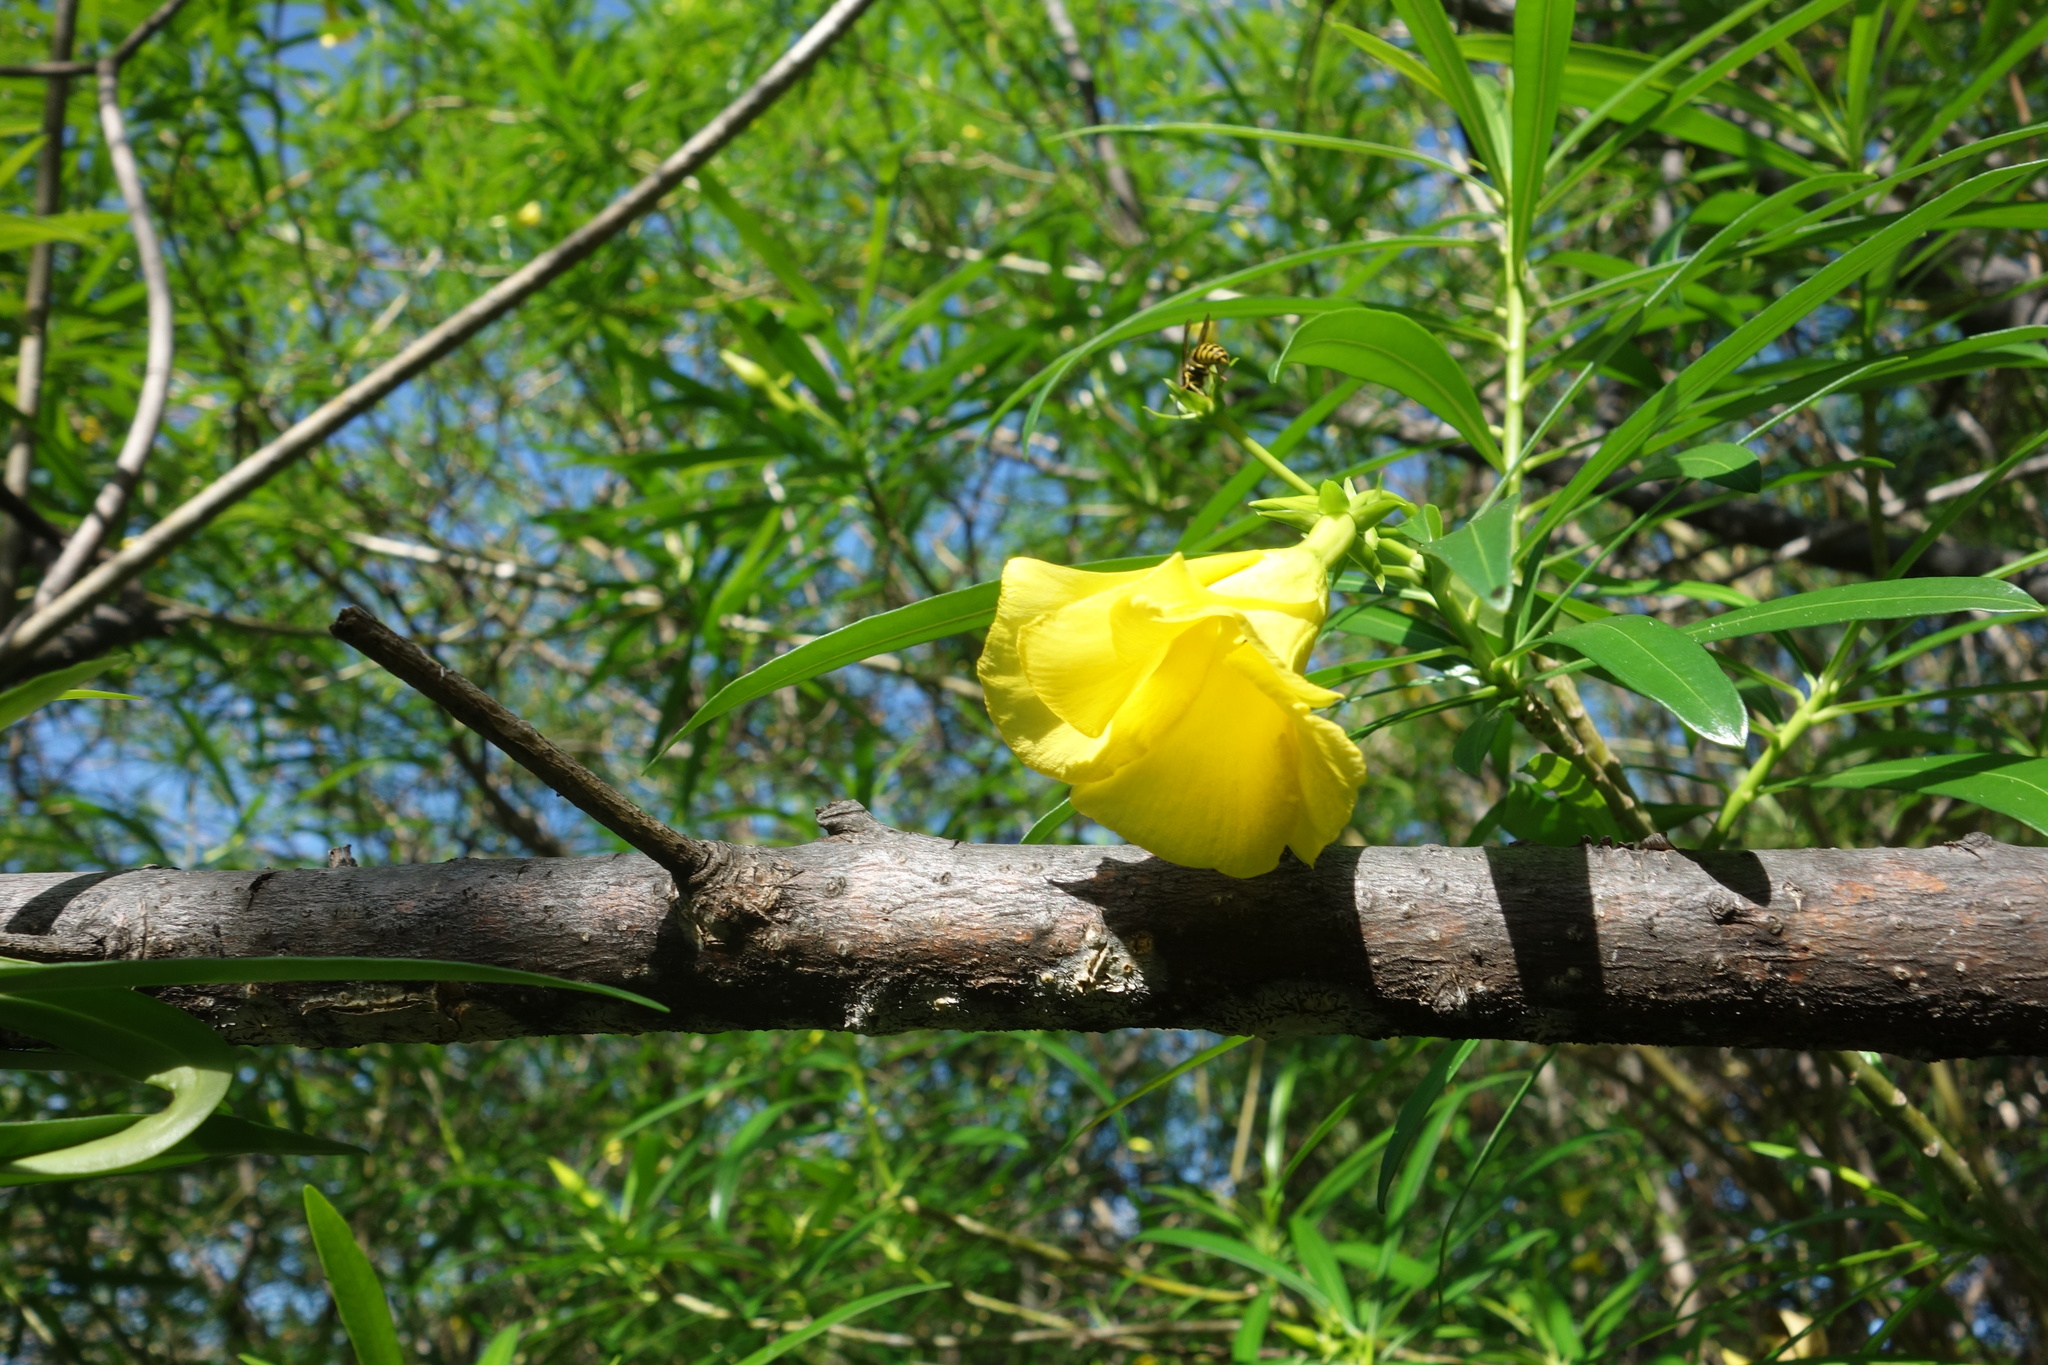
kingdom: Plantae
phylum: Tracheophyta
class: Magnoliopsida
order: Gentianales
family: Apocynaceae
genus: Cascabela
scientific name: Cascabela thevetia
